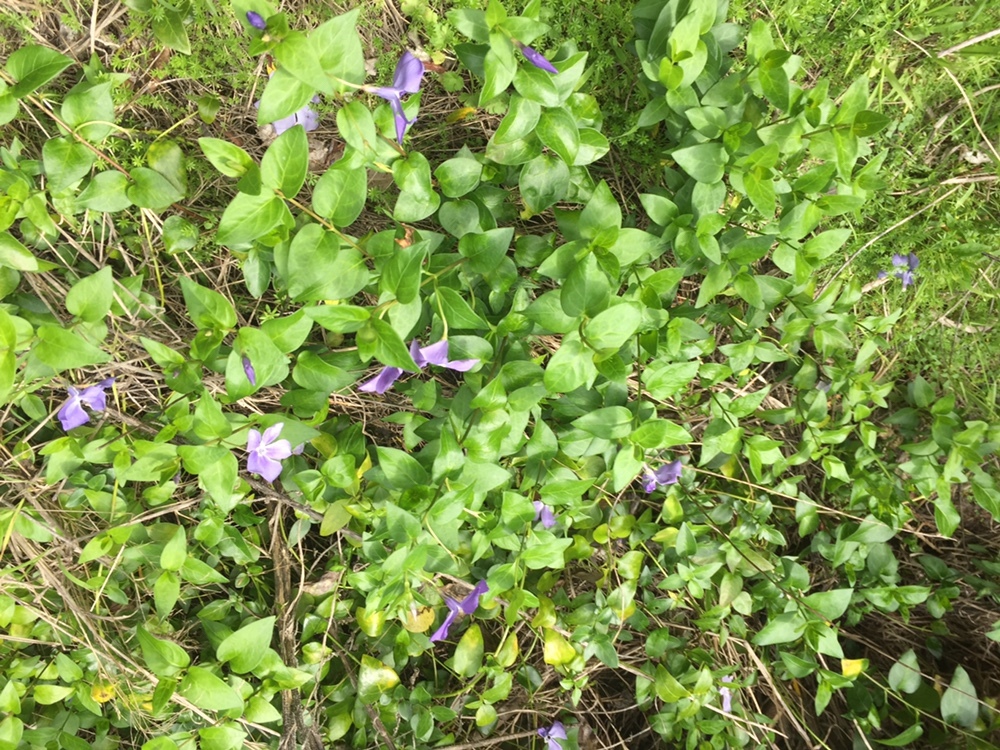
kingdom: Plantae
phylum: Tracheophyta
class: Magnoliopsida
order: Gentianales
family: Apocynaceae
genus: Vinca
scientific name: Vinca major
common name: Greater periwinkle
